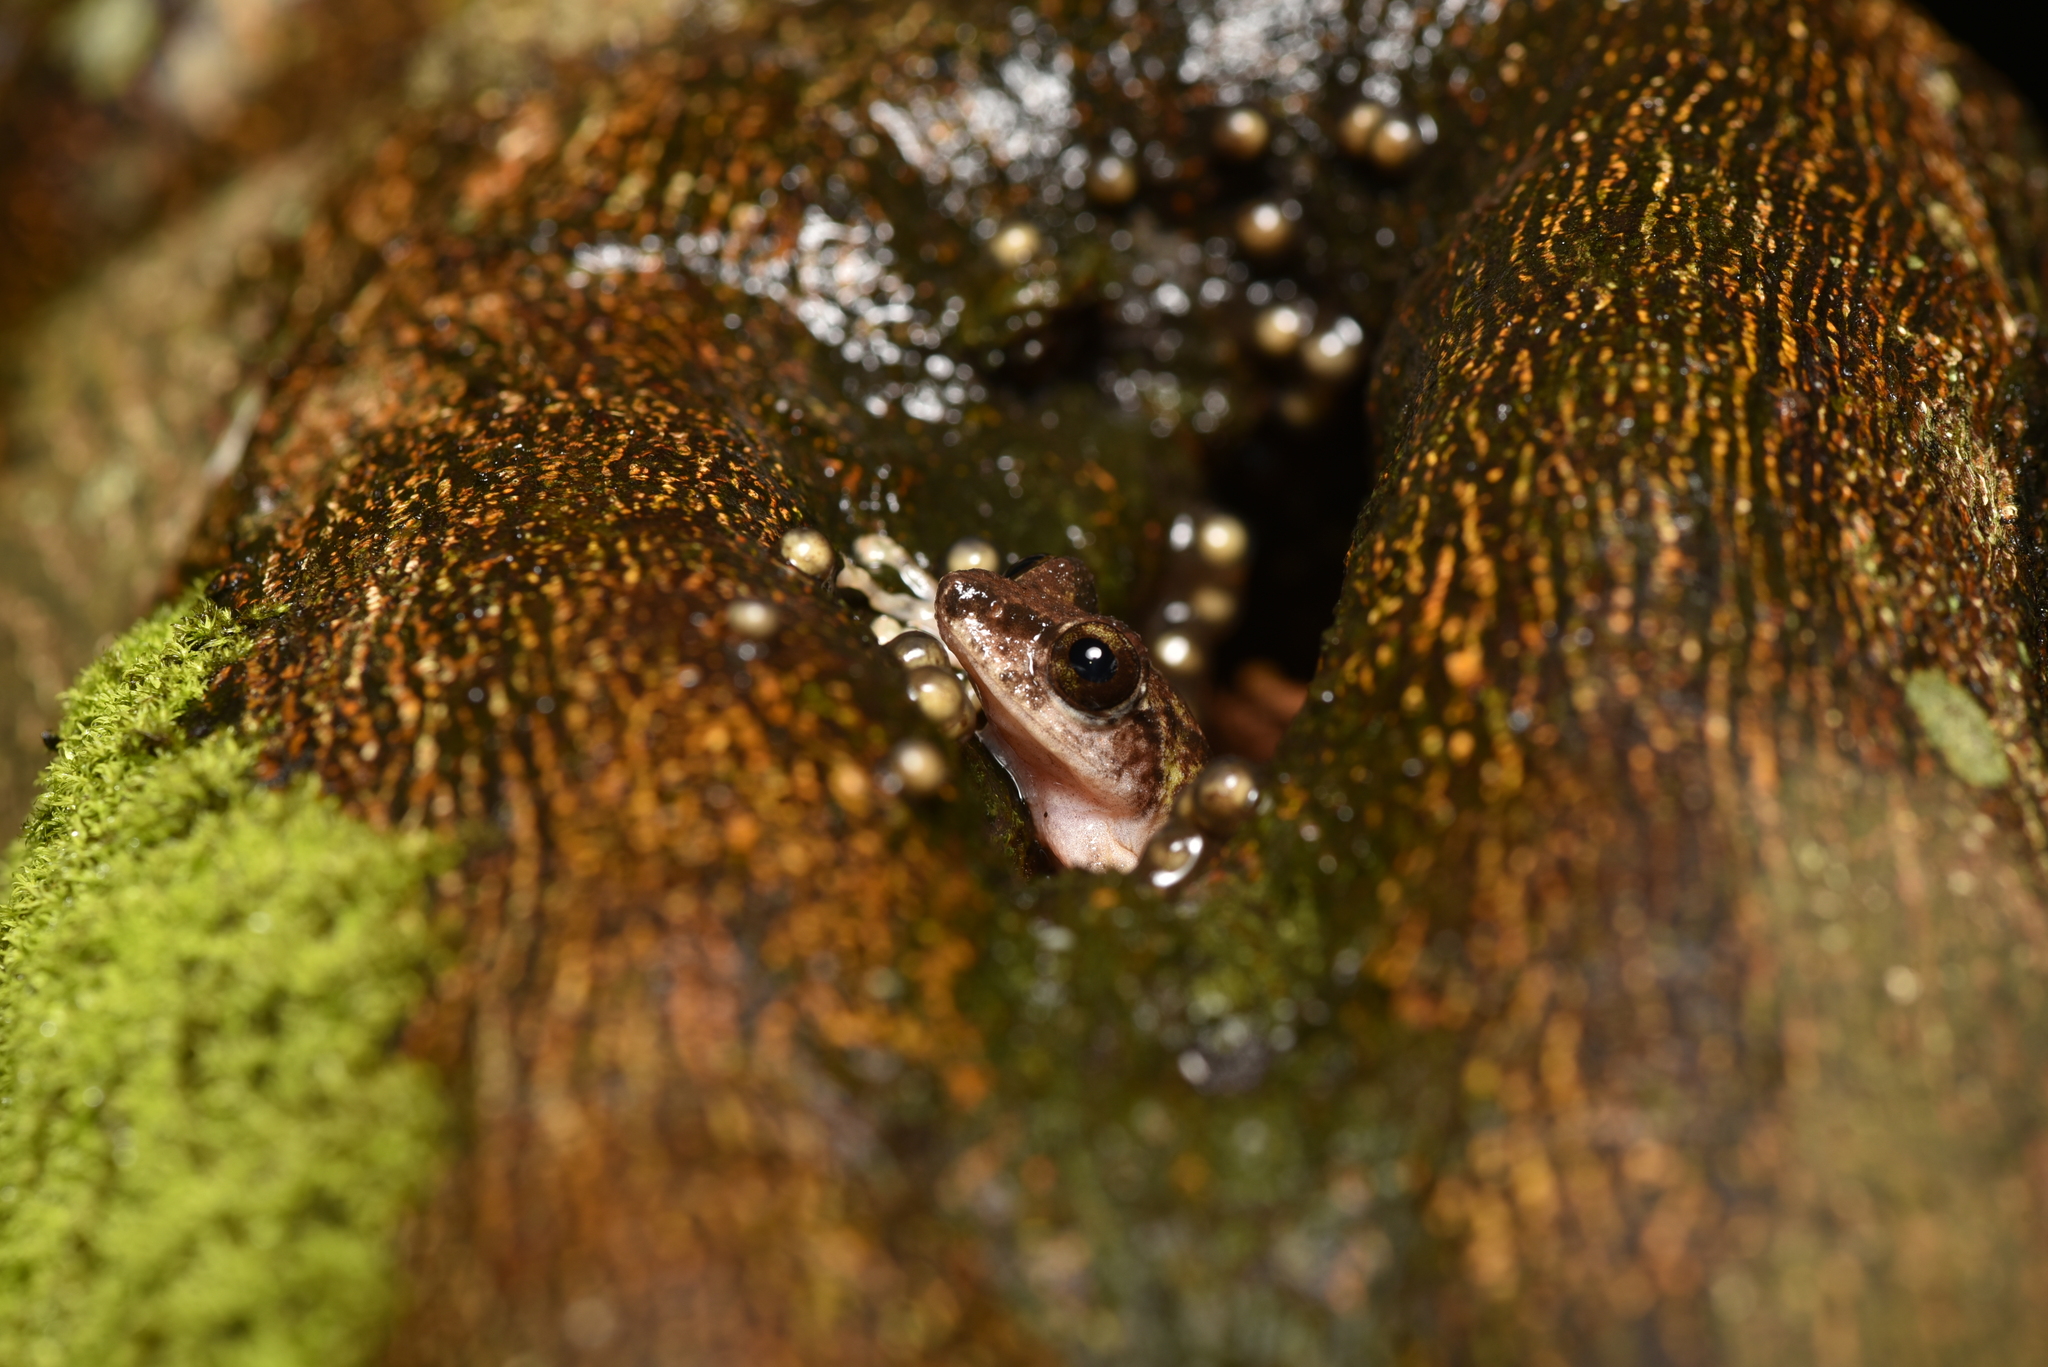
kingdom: Animalia
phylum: Chordata
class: Amphibia
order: Anura
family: Rhacophoridae
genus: Kurixalus
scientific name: Kurixalus berylliniris
